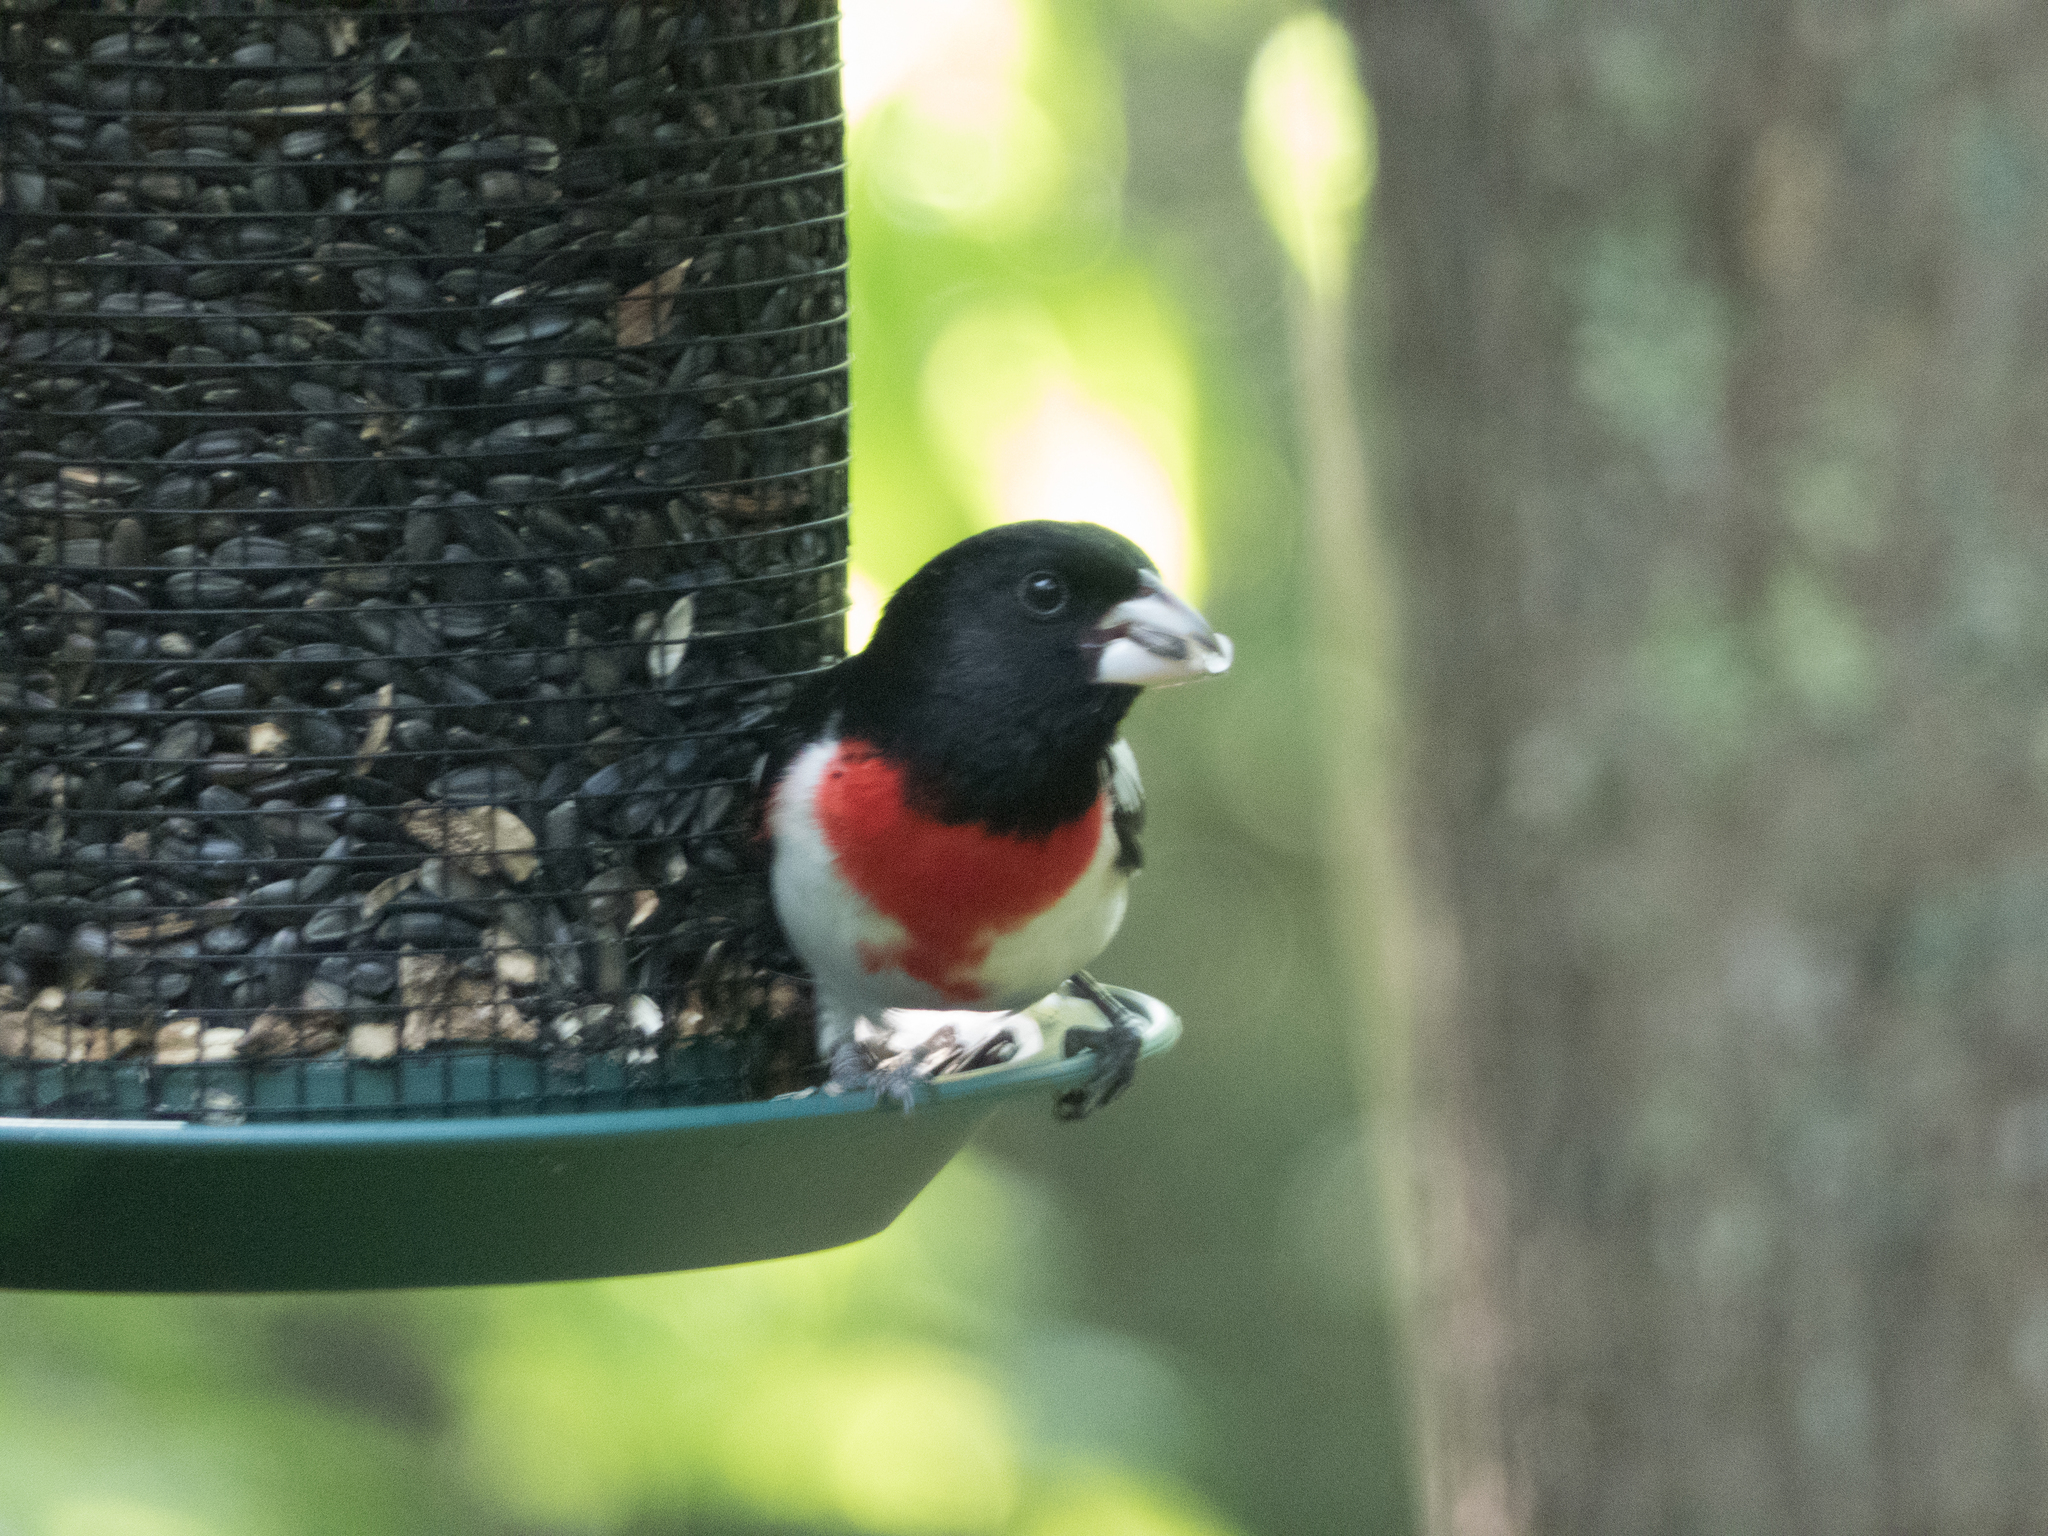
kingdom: Animalia
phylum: Chordata
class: Aves
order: Passeriformes
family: Cardinalidae
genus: Pheucticus
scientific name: Pheucticus ludovicianus
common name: Rose-breasted grosbeak
